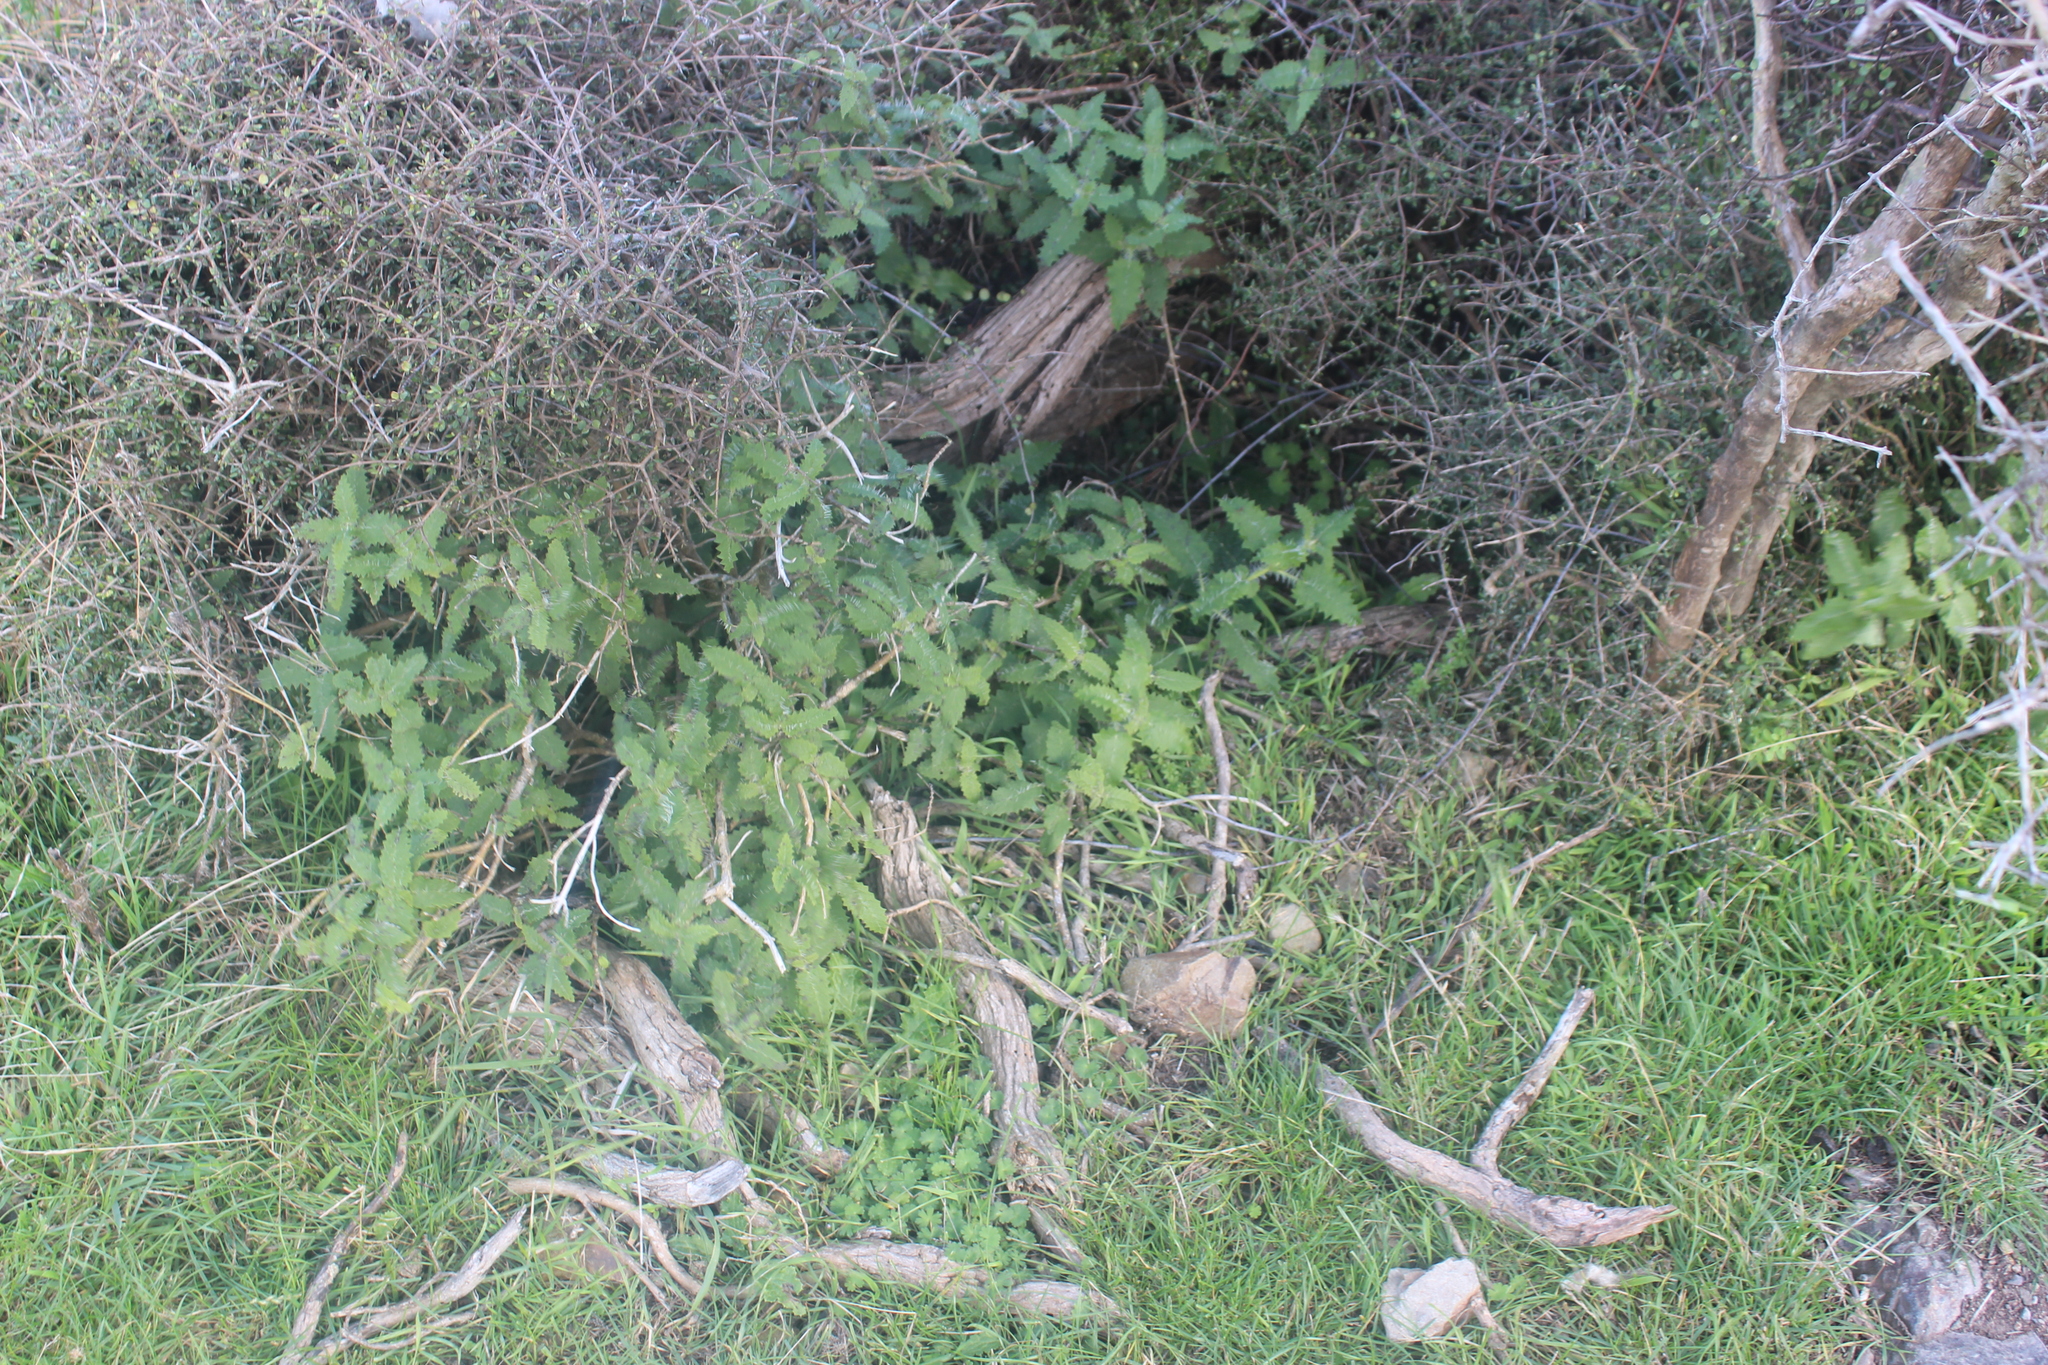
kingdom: Plantae
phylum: Tracheophyta
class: Magnoliopsida
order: Rosales
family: Urticaceae
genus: Urtica
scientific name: Urtica ferox
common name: Tree nettle
